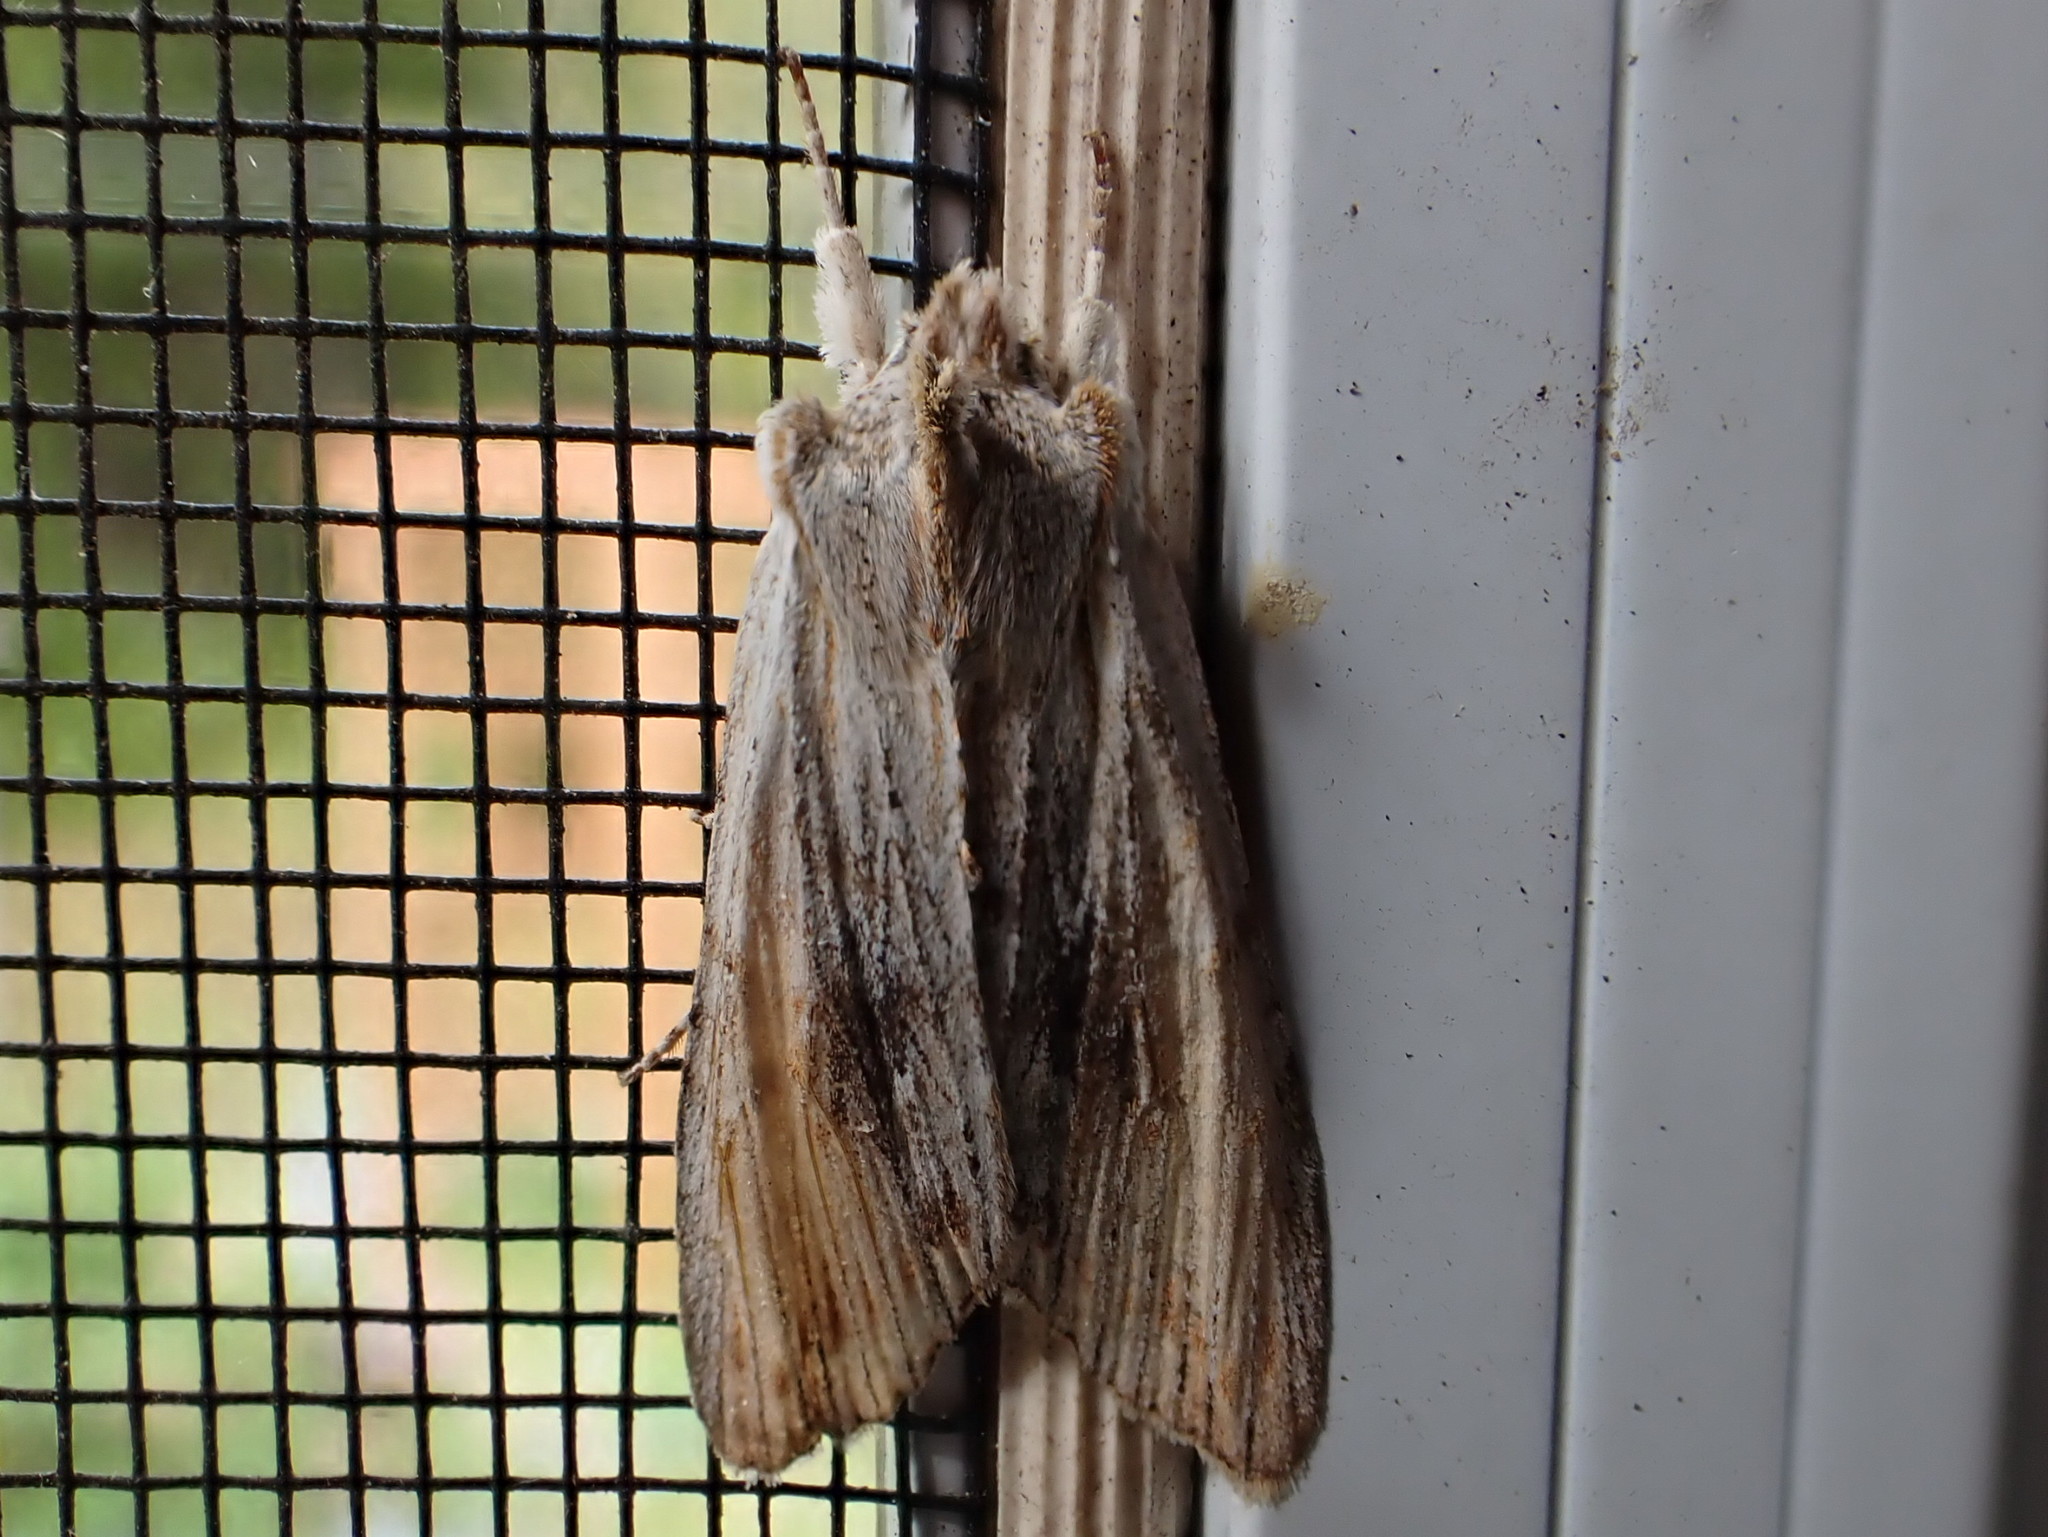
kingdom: Animalia
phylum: Arthropoda
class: Insecta
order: Lepidoptera
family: Noctuidae
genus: Lithophane
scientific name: Lithophane amanda
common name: Amanda's pinion moth
